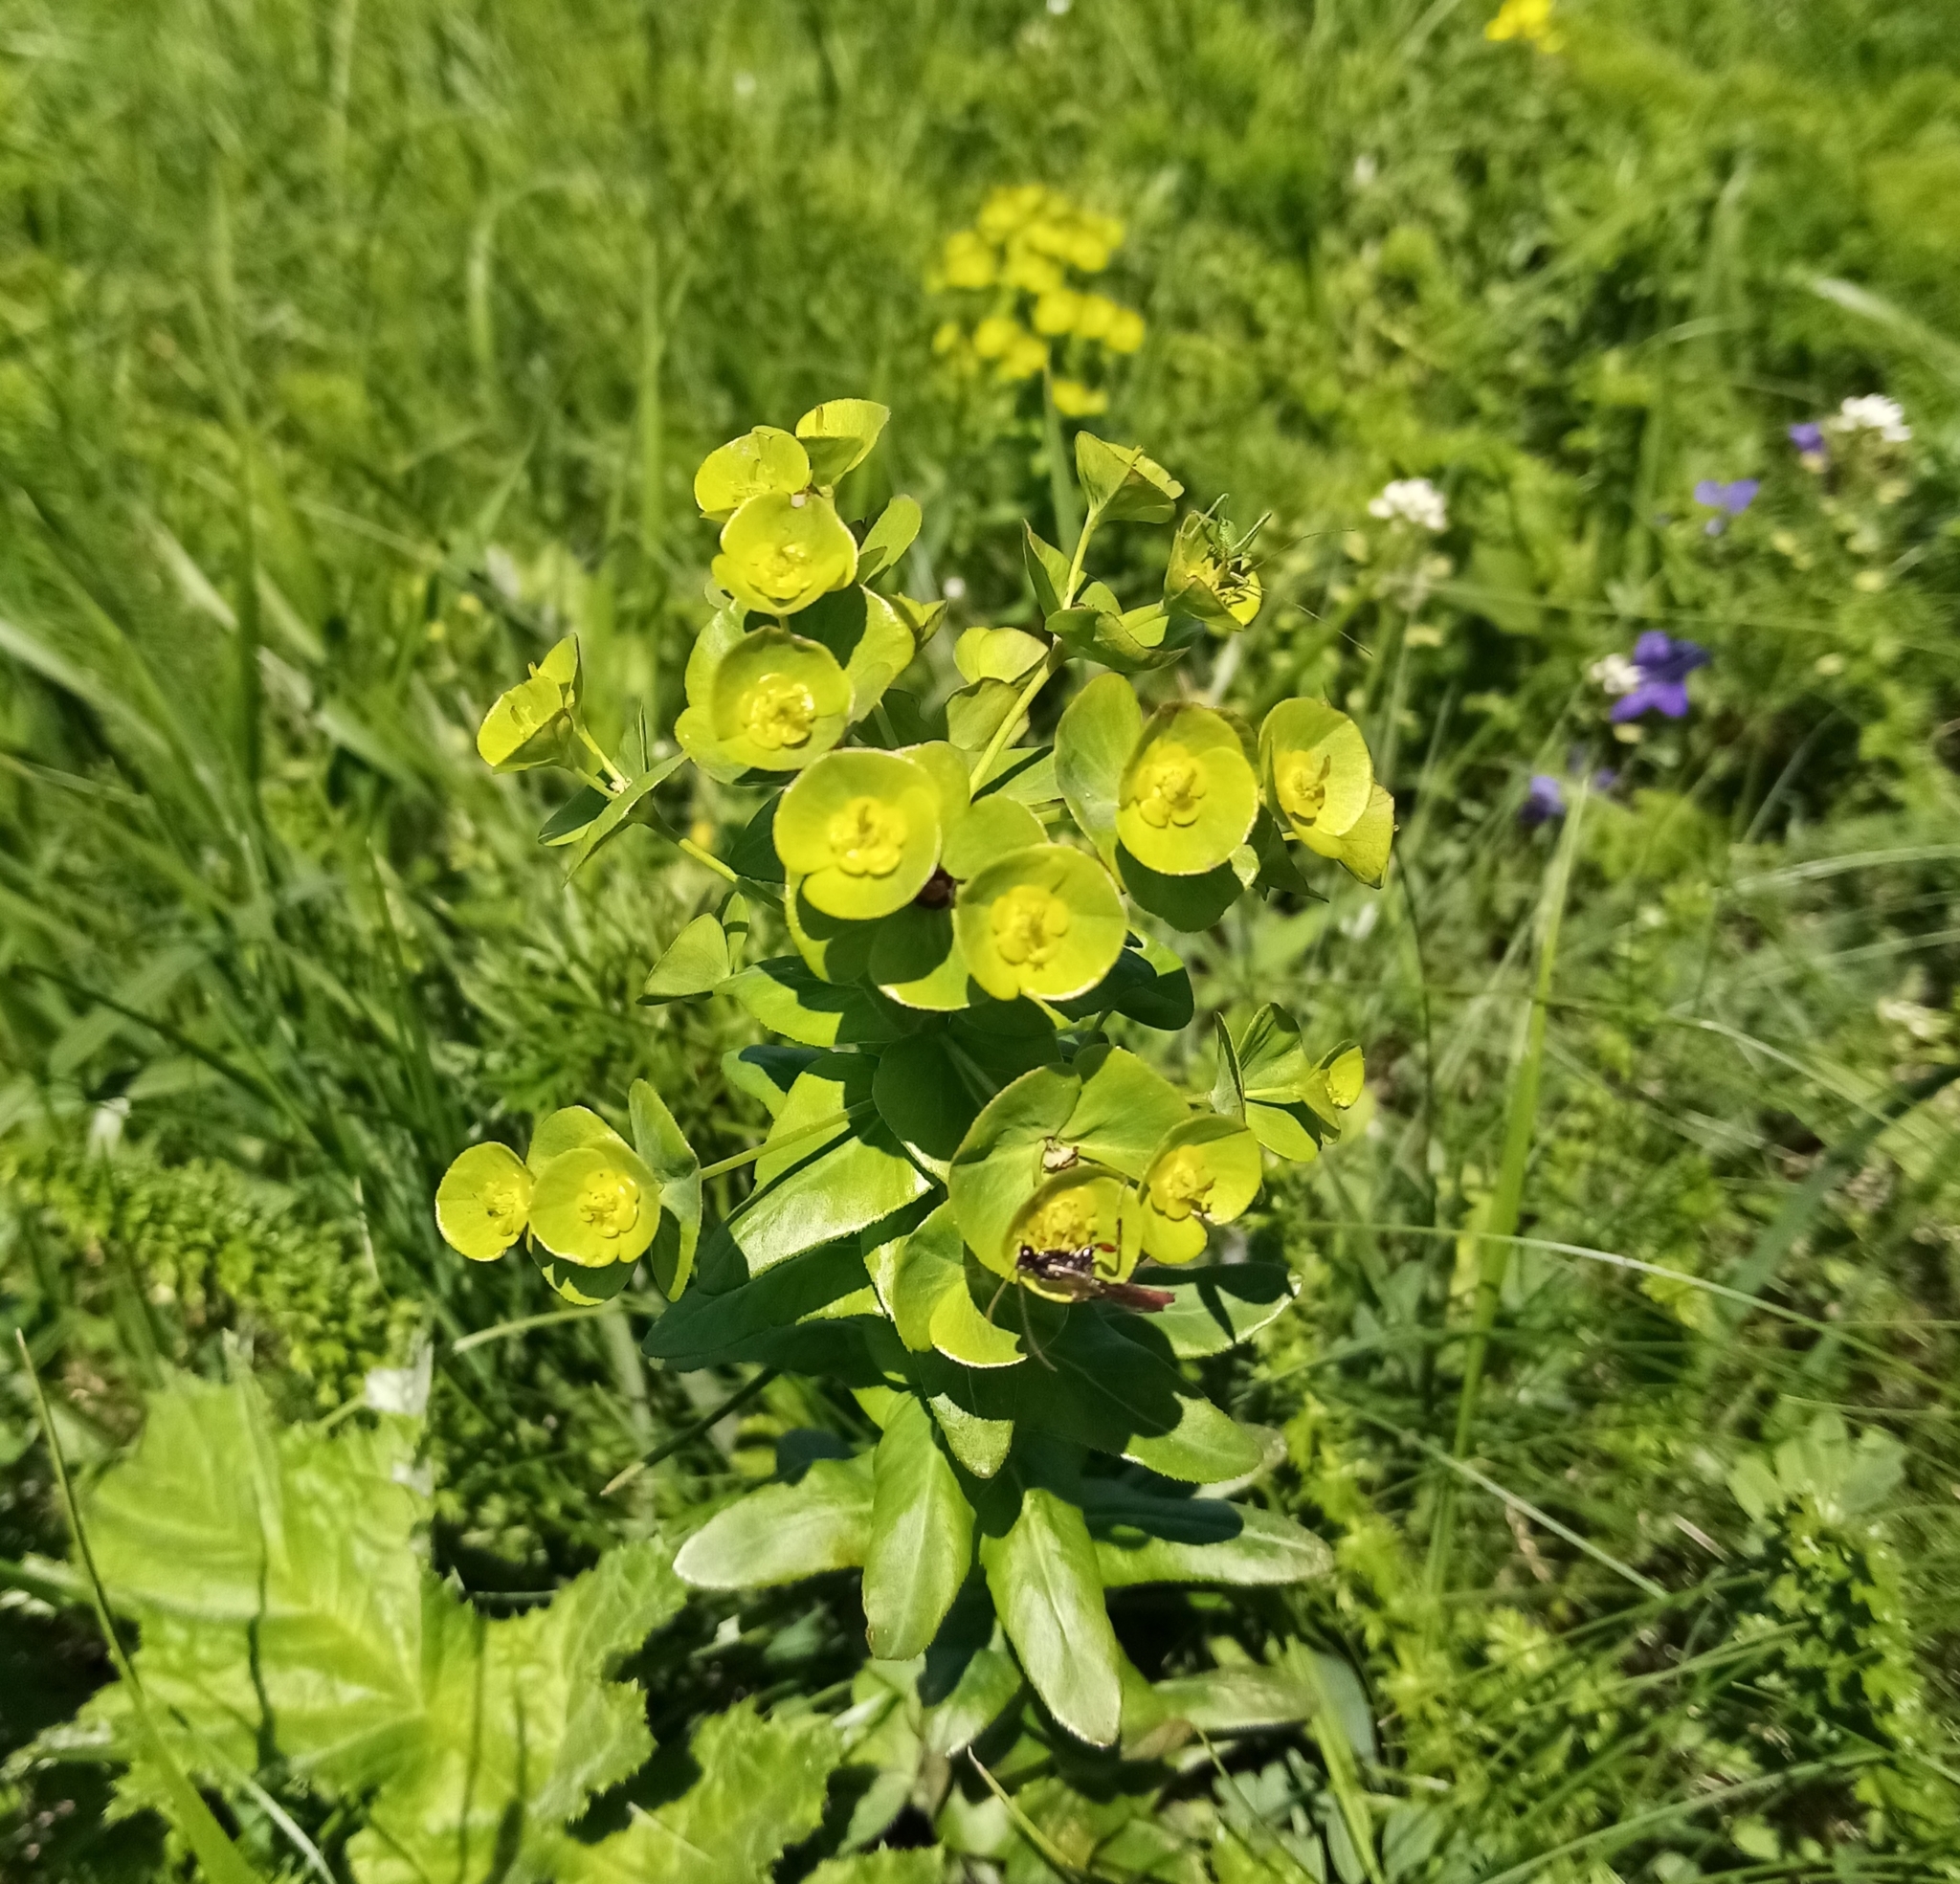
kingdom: Plantae
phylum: Tracheophyta
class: Magnoliopsida
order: Malpighiales
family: Euphorbiaceae
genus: Euphorbia
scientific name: Euphorbia condylocarpa
